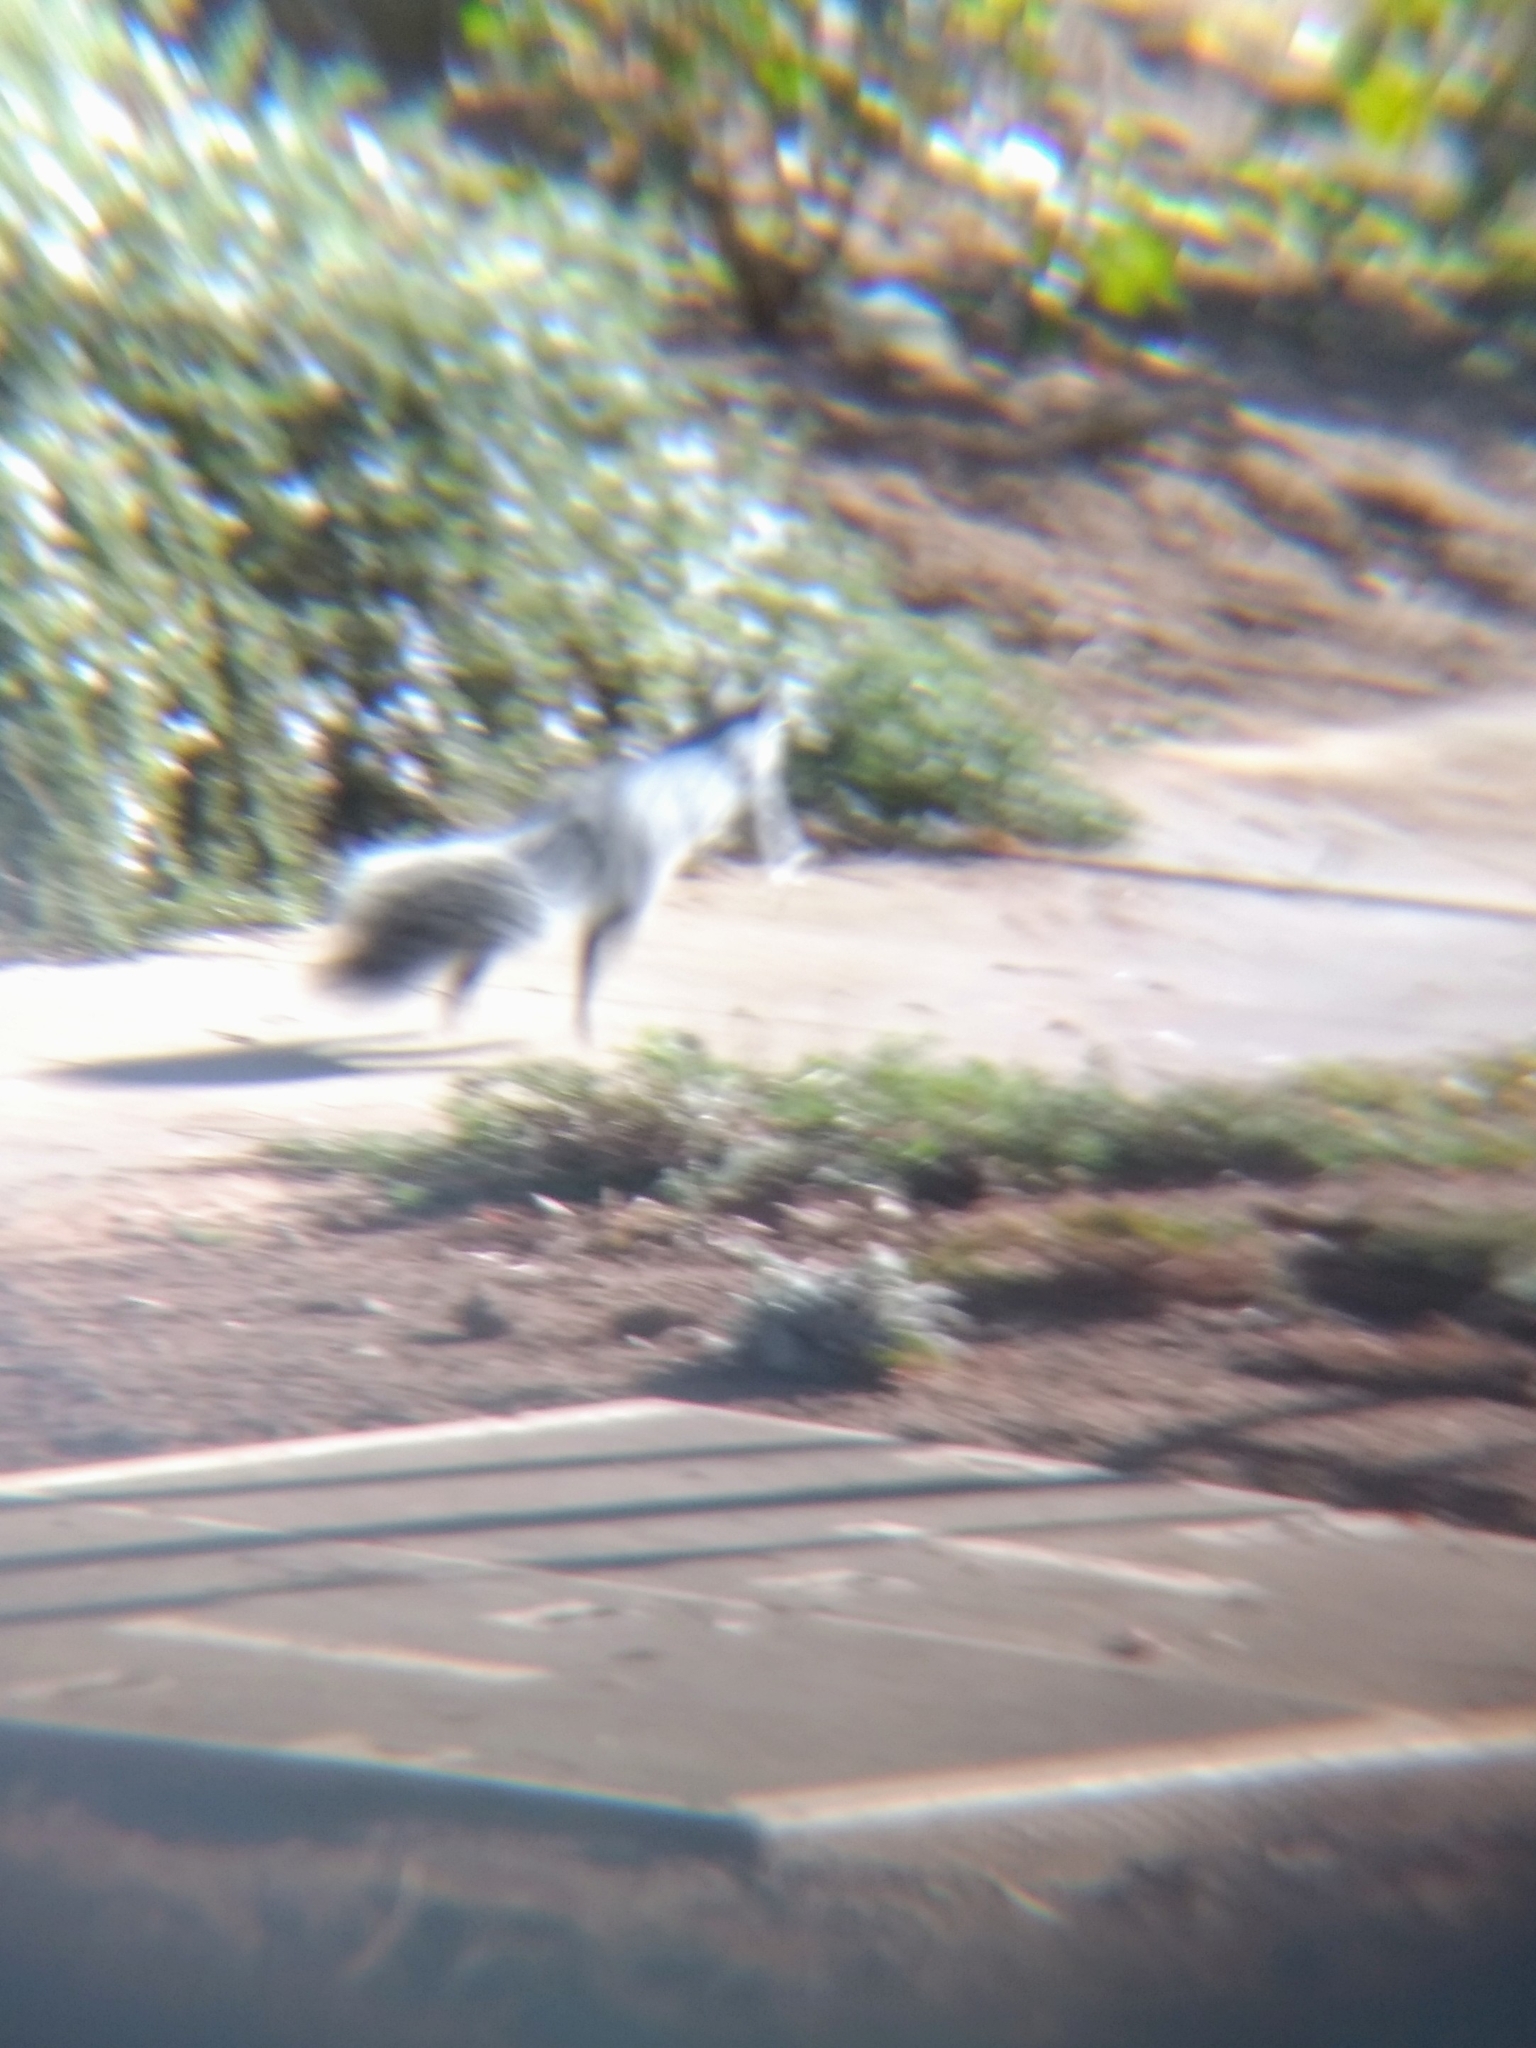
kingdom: Animalia
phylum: Chordata
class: Mammalia
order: Rodentia
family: Sciuridae
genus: Sciurus
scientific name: Sciurus griseus
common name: Western gray squirrel
